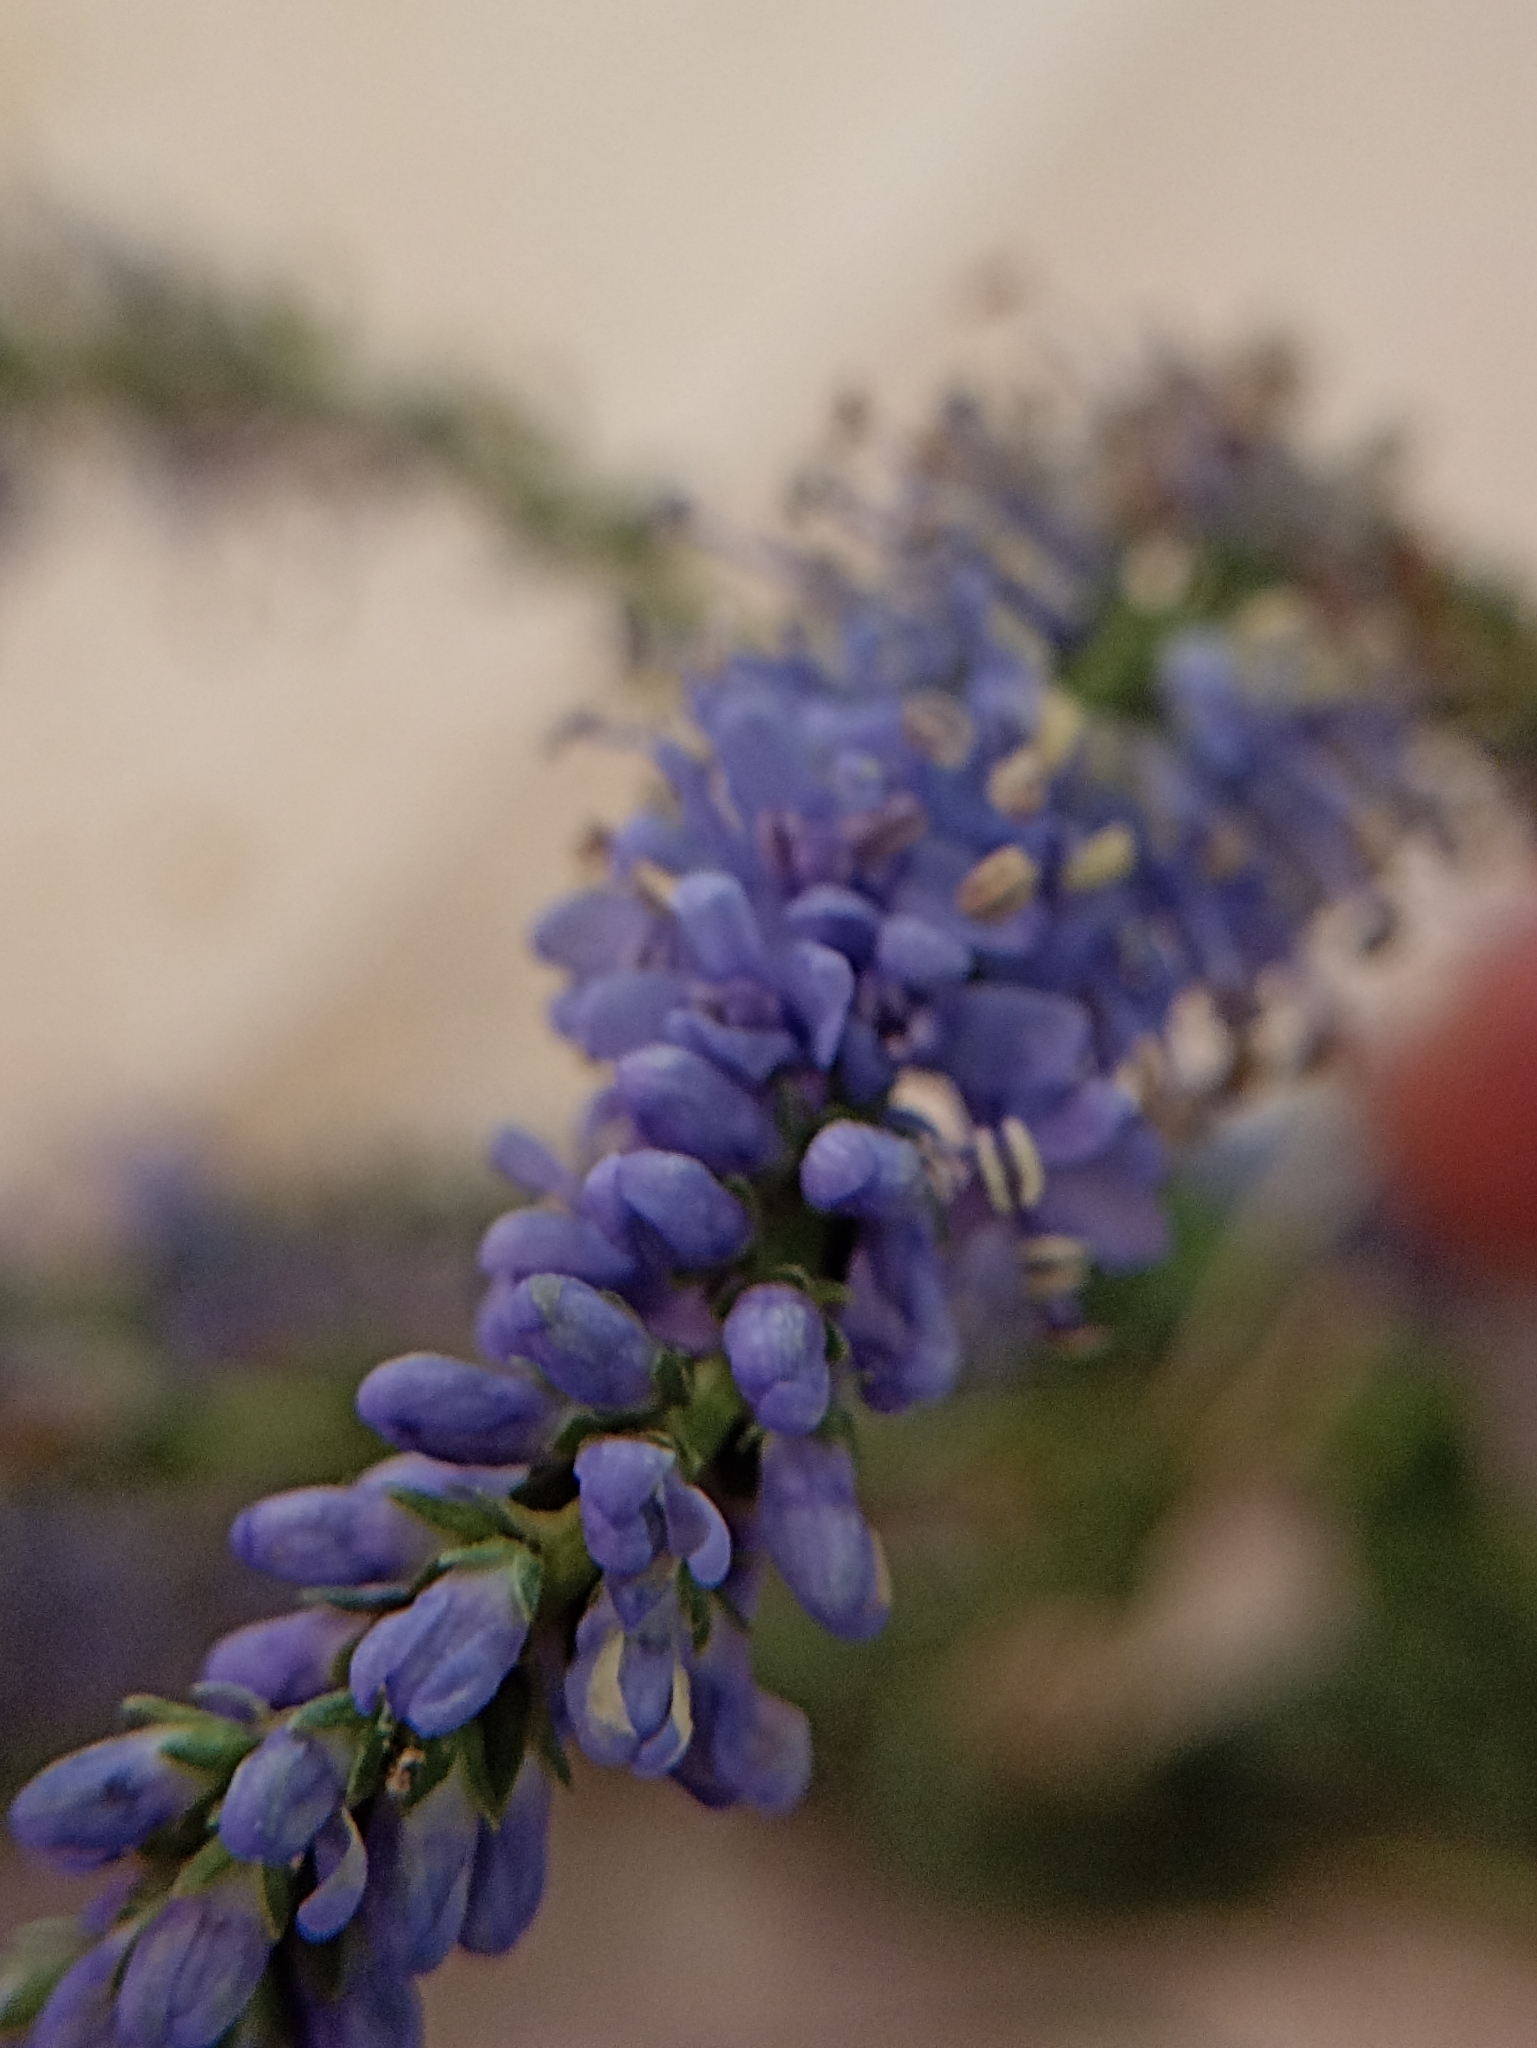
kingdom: Plantae
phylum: Tracheophyta
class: Magnoliopsida
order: Lamiales
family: Plantaginaceae
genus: Veronica
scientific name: Veronica longifolia
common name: Garden speedwell
